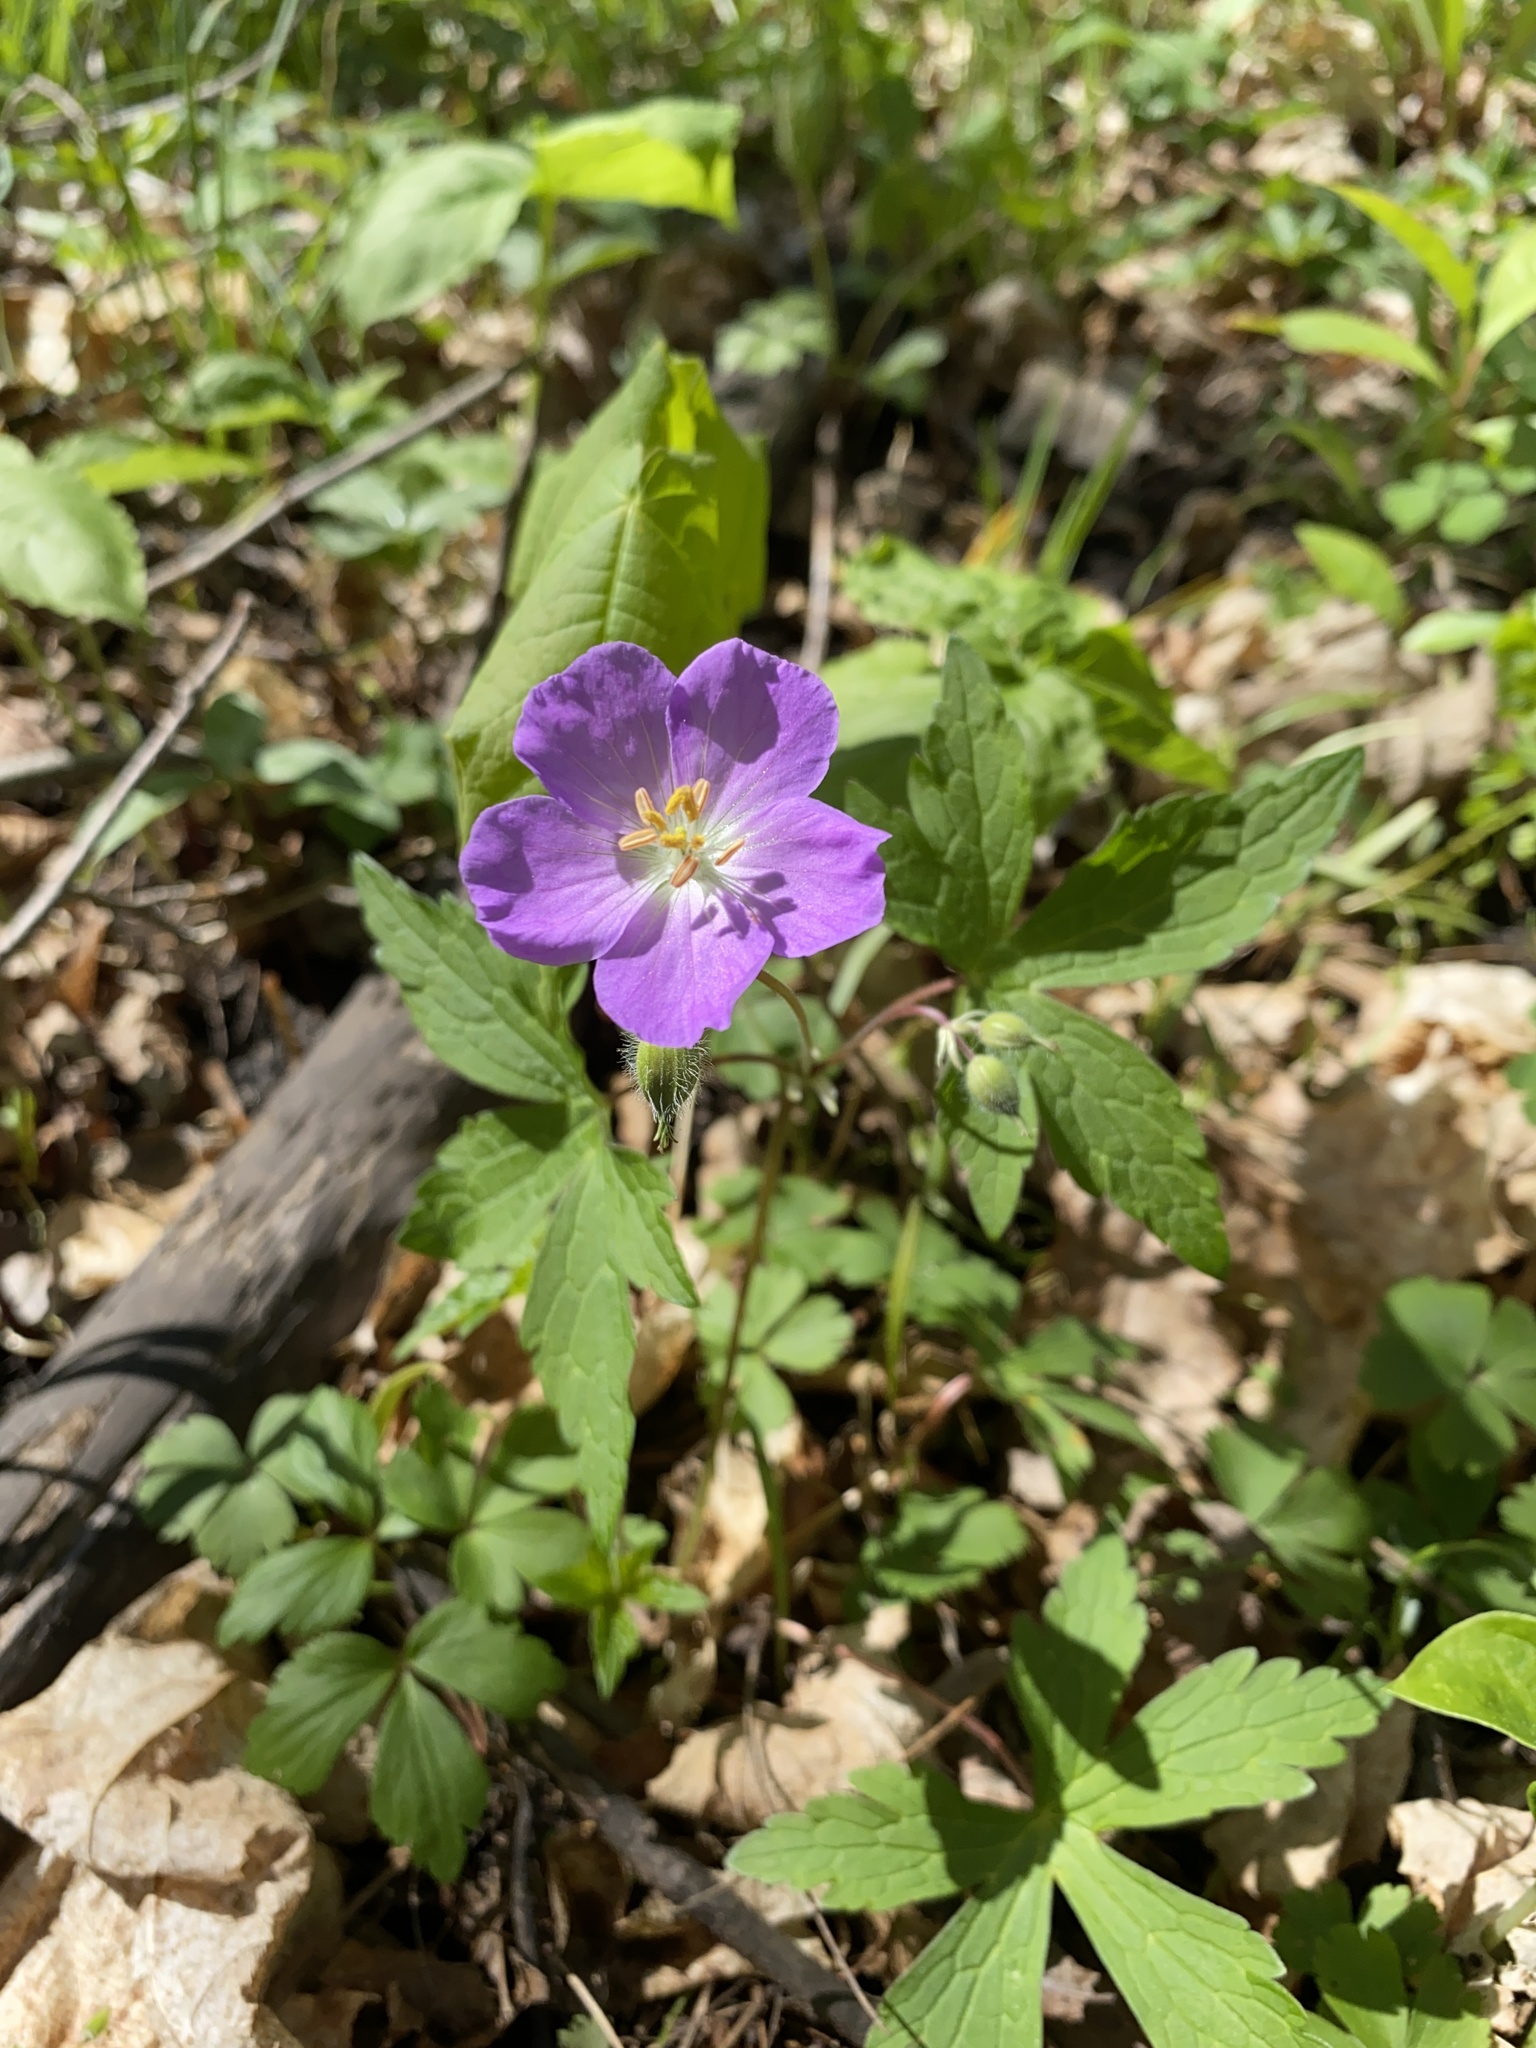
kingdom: Plantae
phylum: Tracheophyta
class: Magnoliopsida
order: Geraniales
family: Geraniaceae
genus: Geranium
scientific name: Geranium maculatum
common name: Spotted geranium
